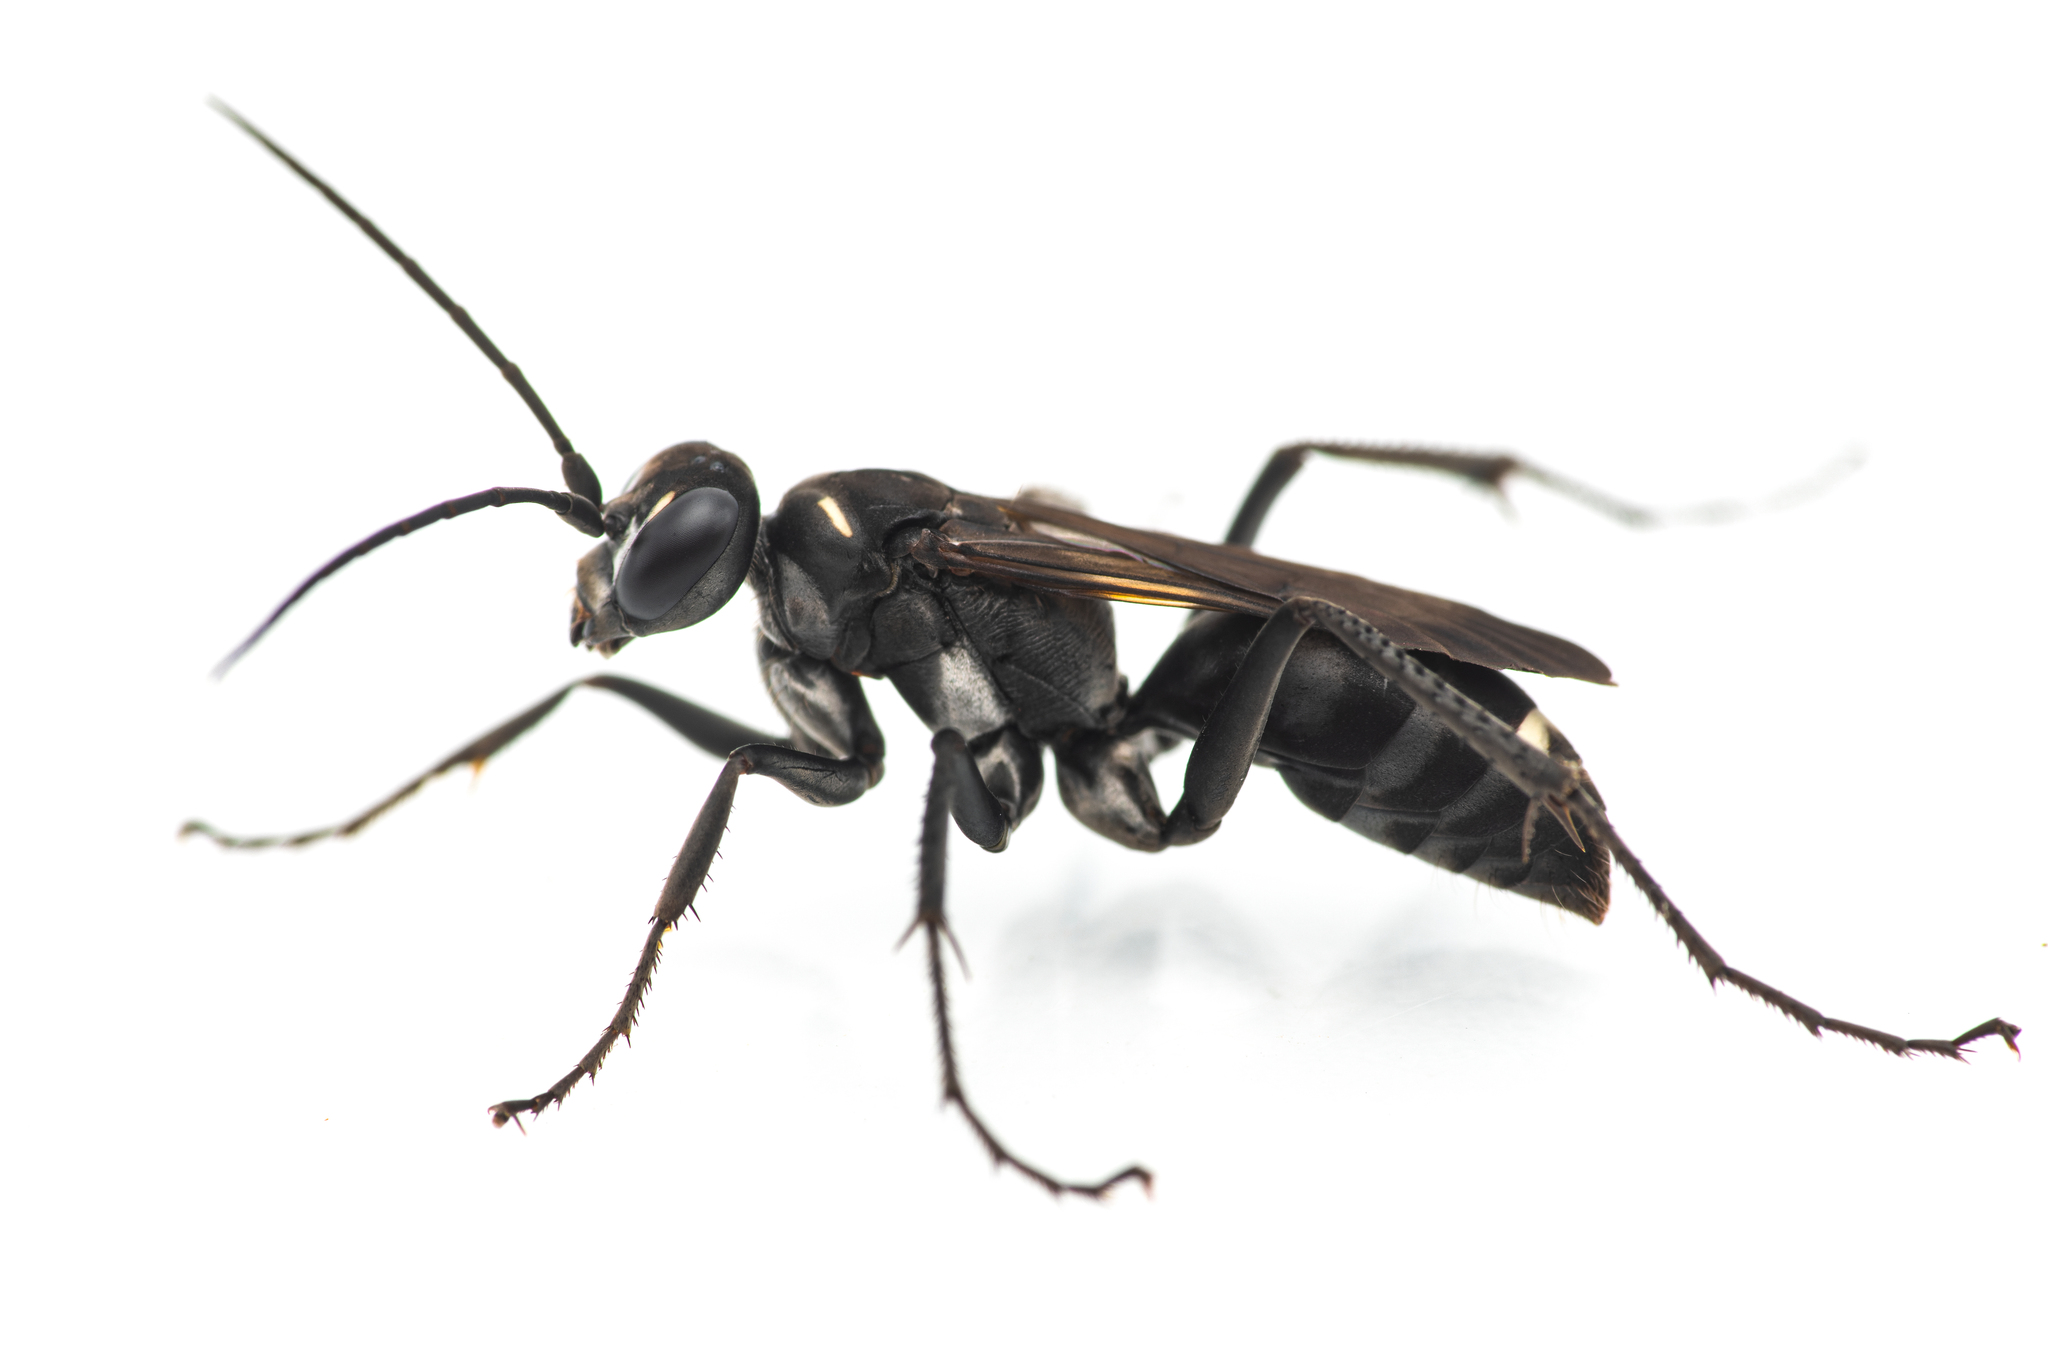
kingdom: Animalia
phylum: Arthropoda
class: Insecta
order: Hymenoptera
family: Pompilidae
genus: Cryptocheilus
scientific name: Cryptocheilus hispanicus
